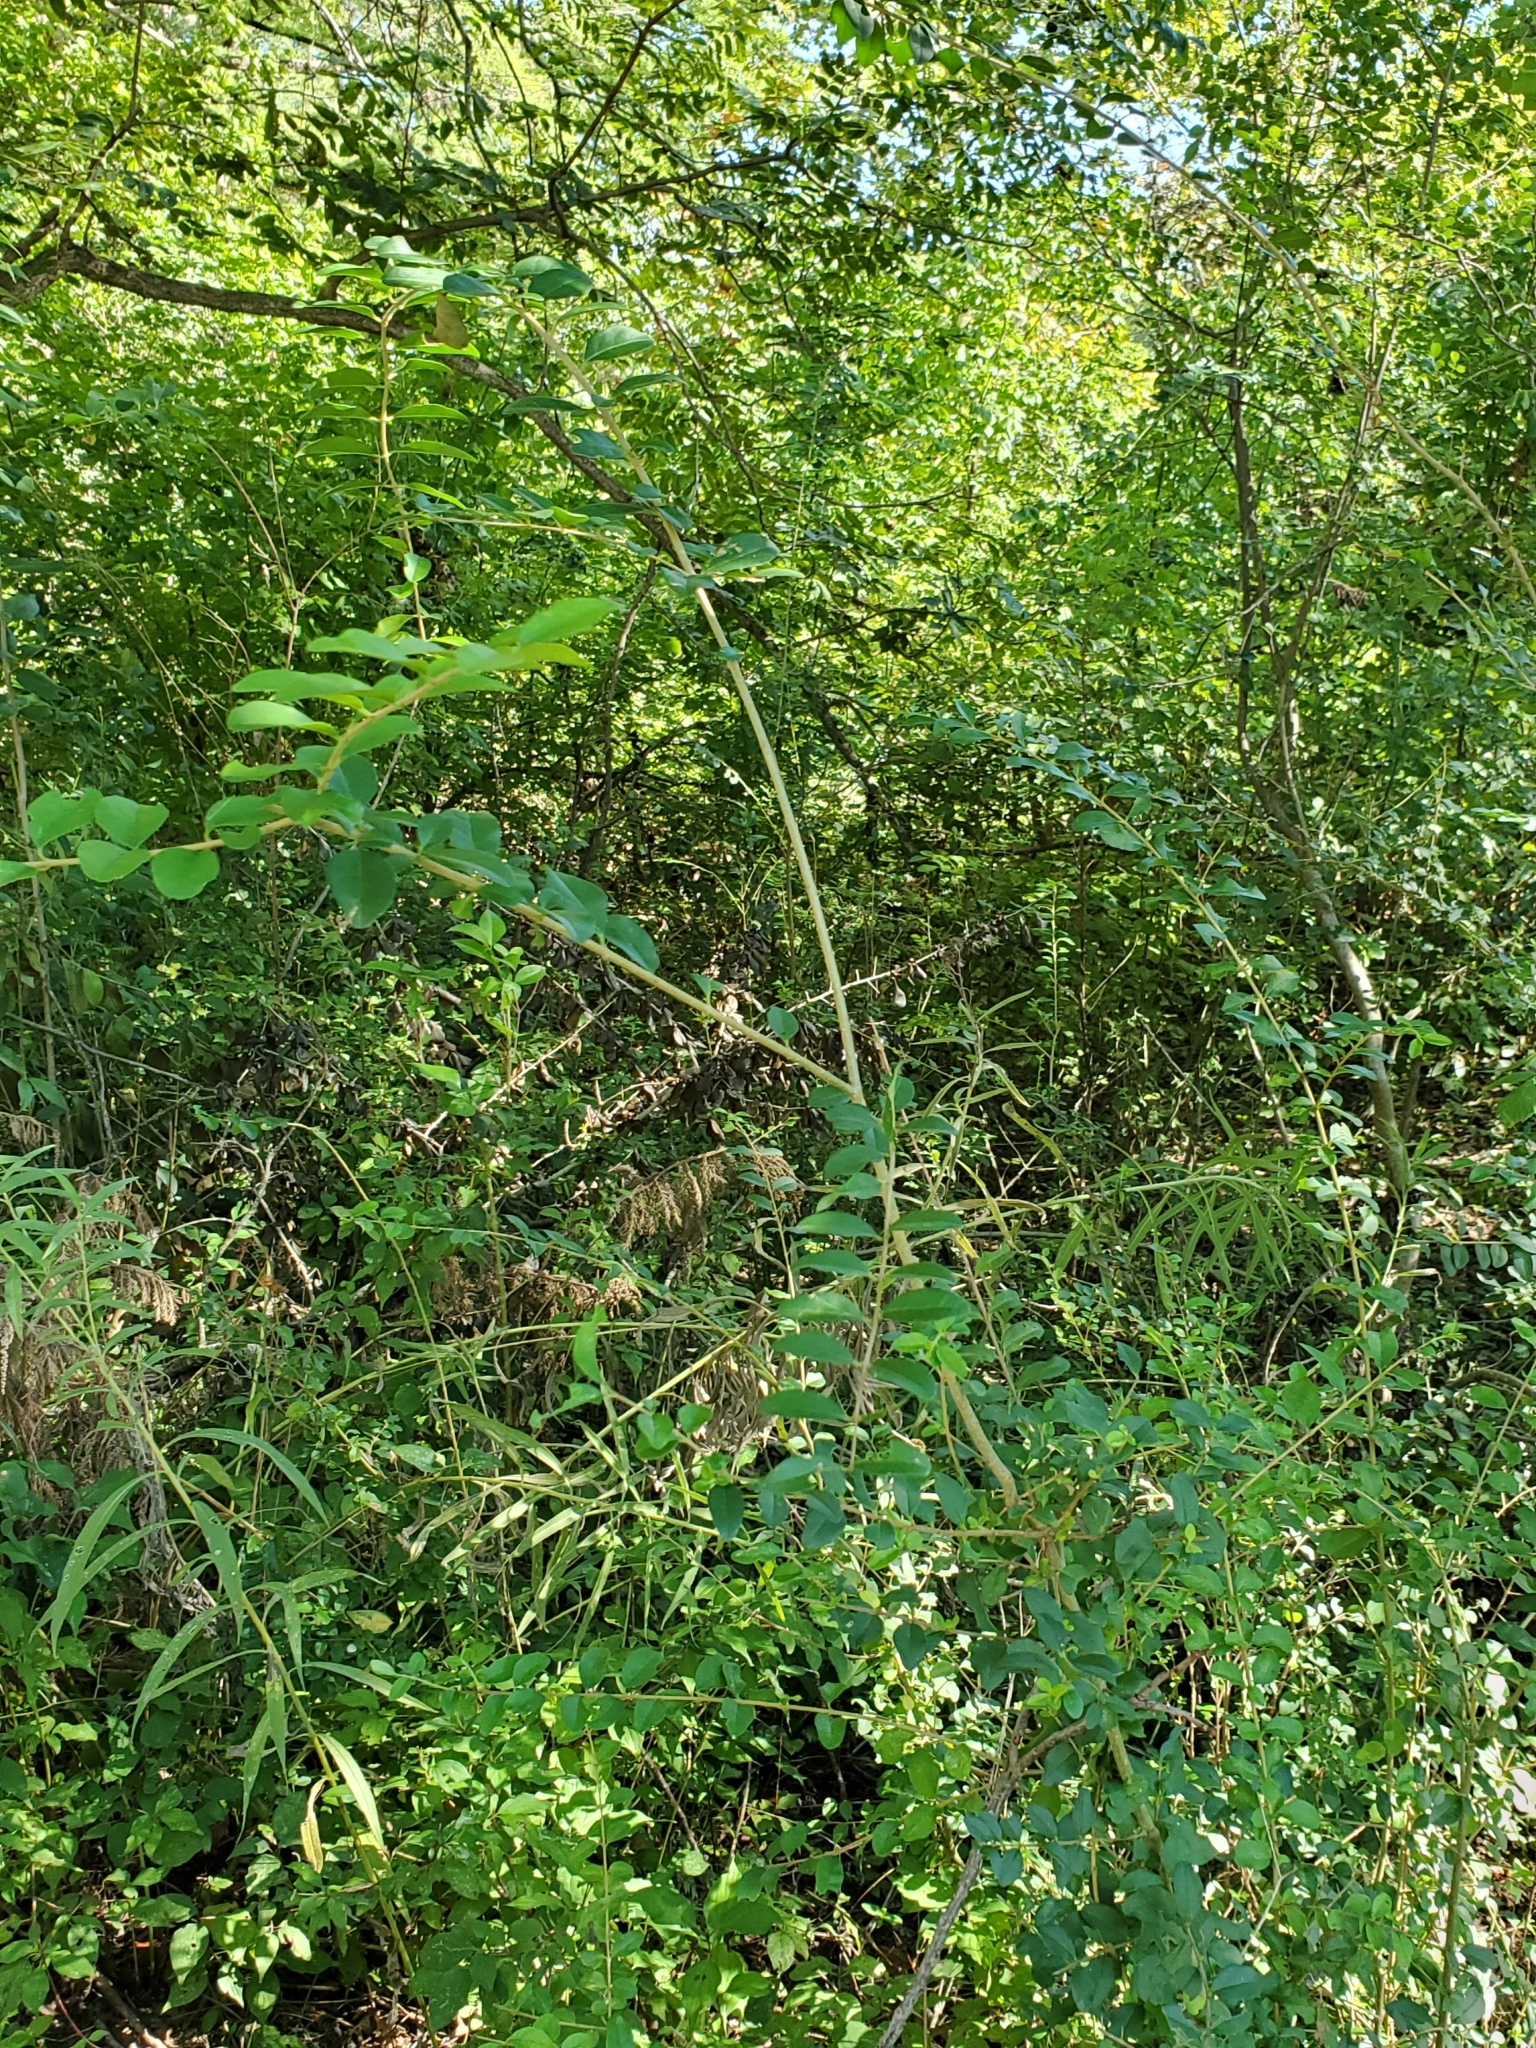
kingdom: Plantae
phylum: Tracheophyta
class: Magnoliopsida
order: Lamiales
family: Oleaceae
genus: Ligustrum
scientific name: Ligustrum sinense
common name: Chinese privet
